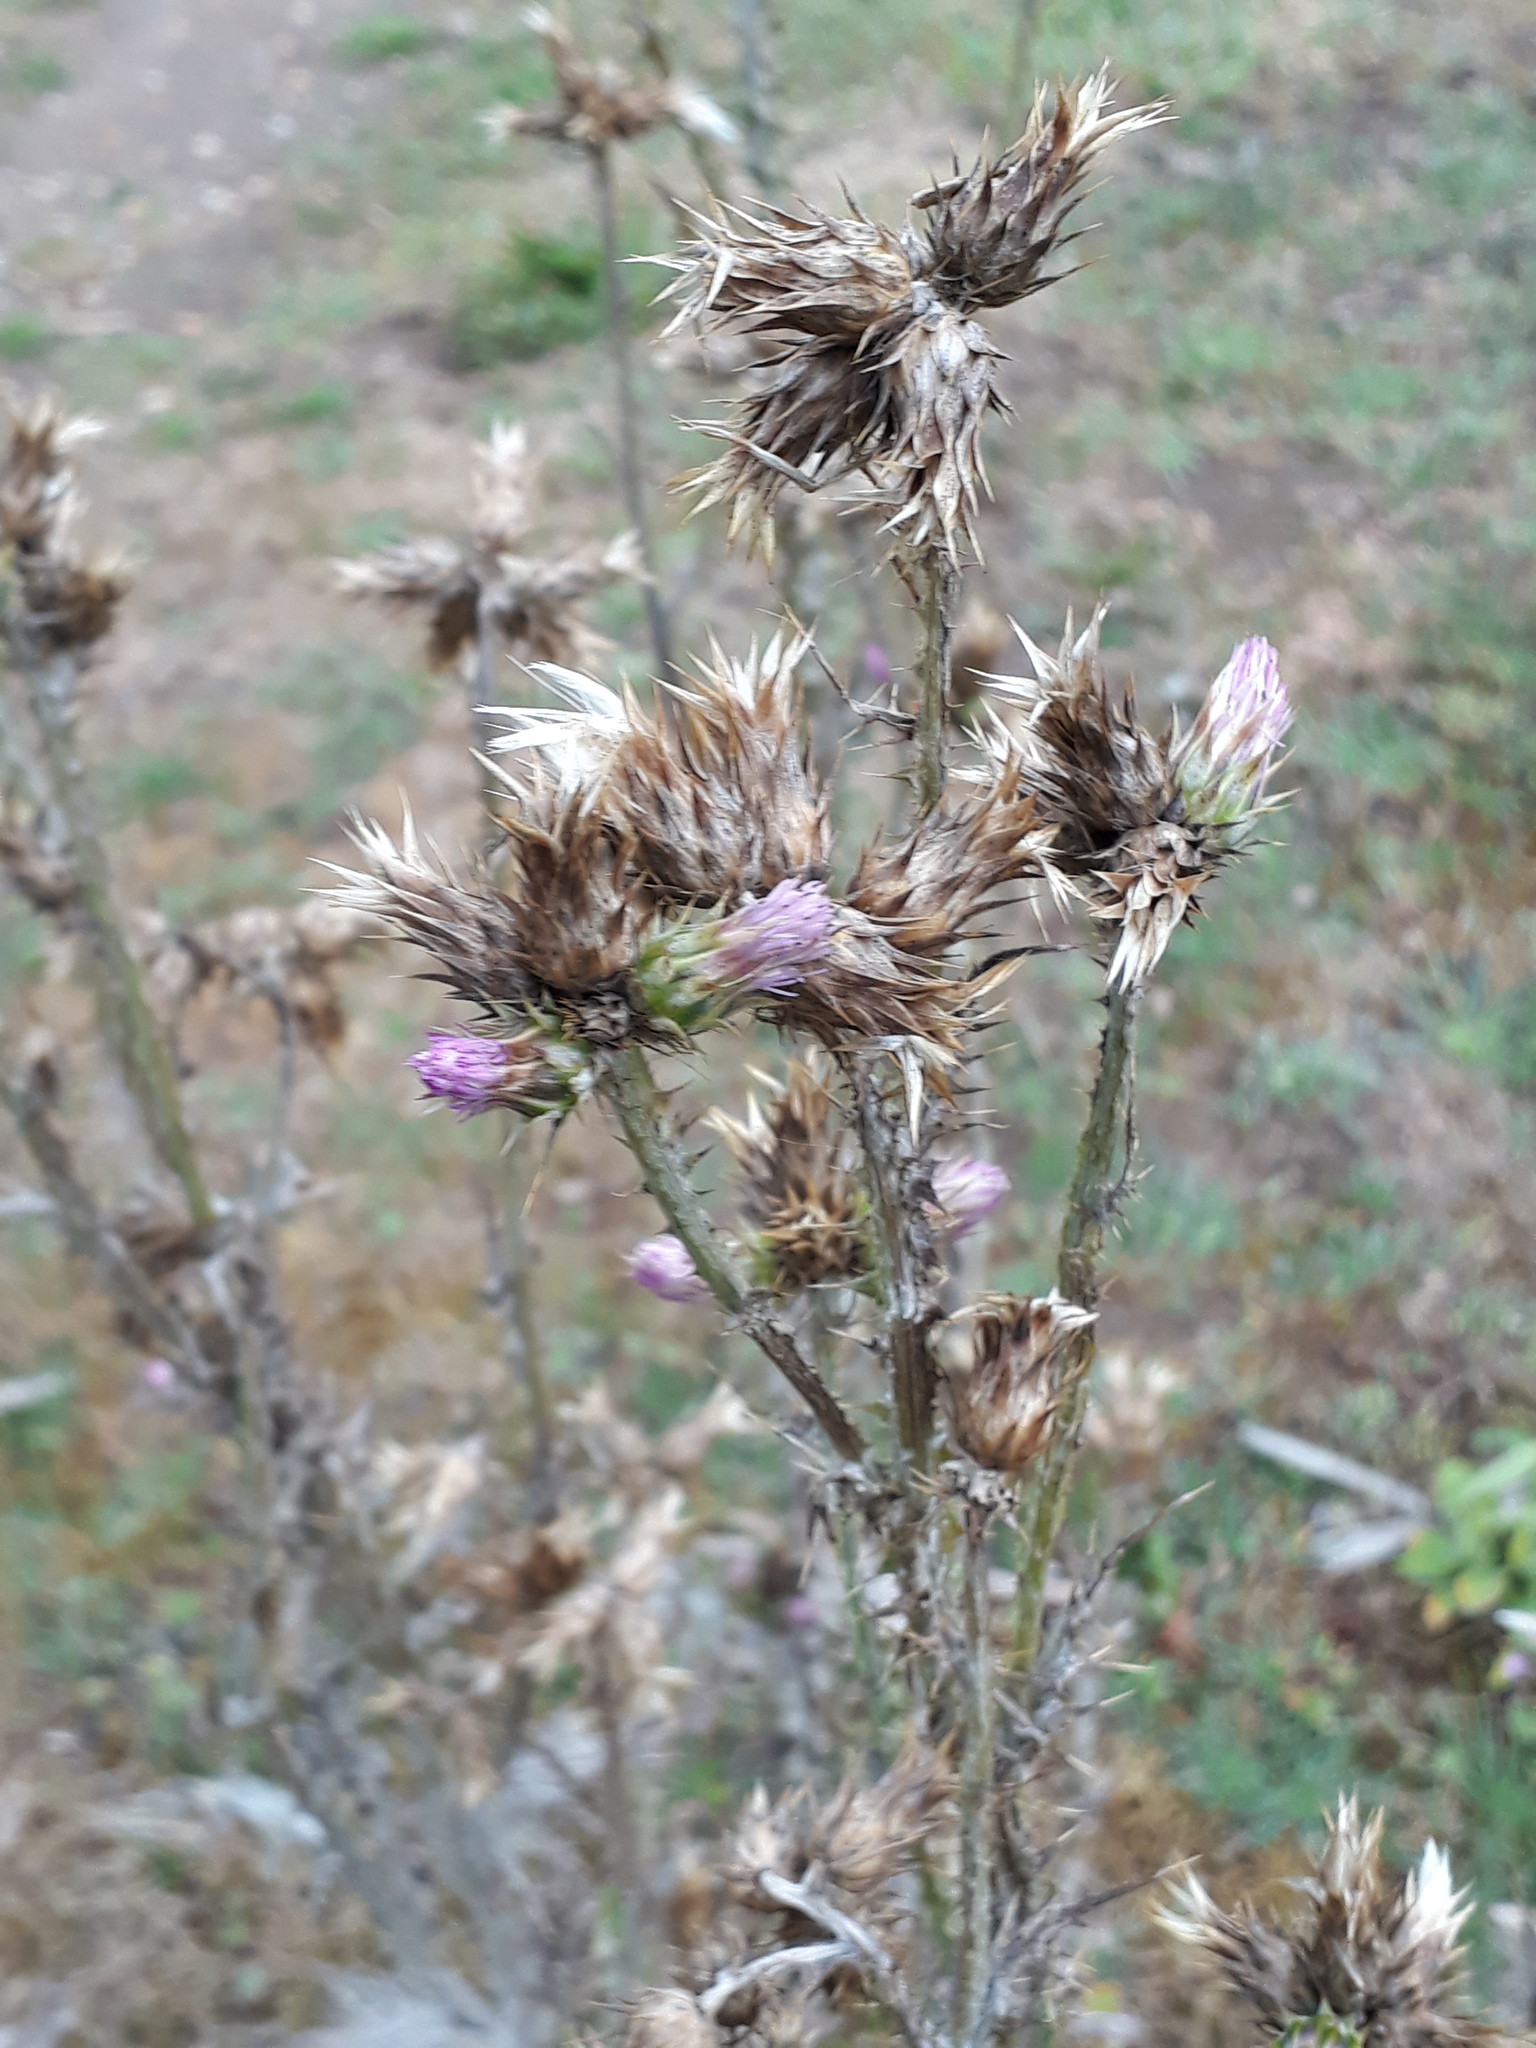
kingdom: Plantae
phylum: Tracheophyta
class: Magnoliopsida
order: Asterales
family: Asteraceae
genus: Carduus
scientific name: Carduus tenuiflorus
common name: Slender thistle
